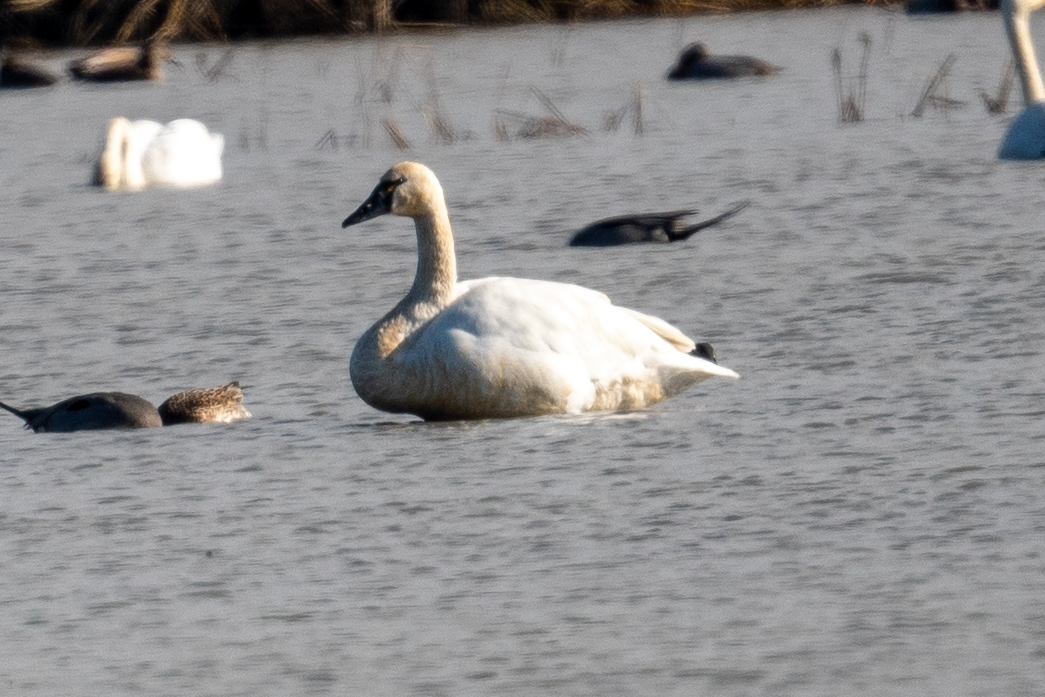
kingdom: Animalia
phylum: Chordata
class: Aves
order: Anseriformes
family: Anatidae
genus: Cygnus
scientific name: Cygnus columbianus
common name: Tundra swan
